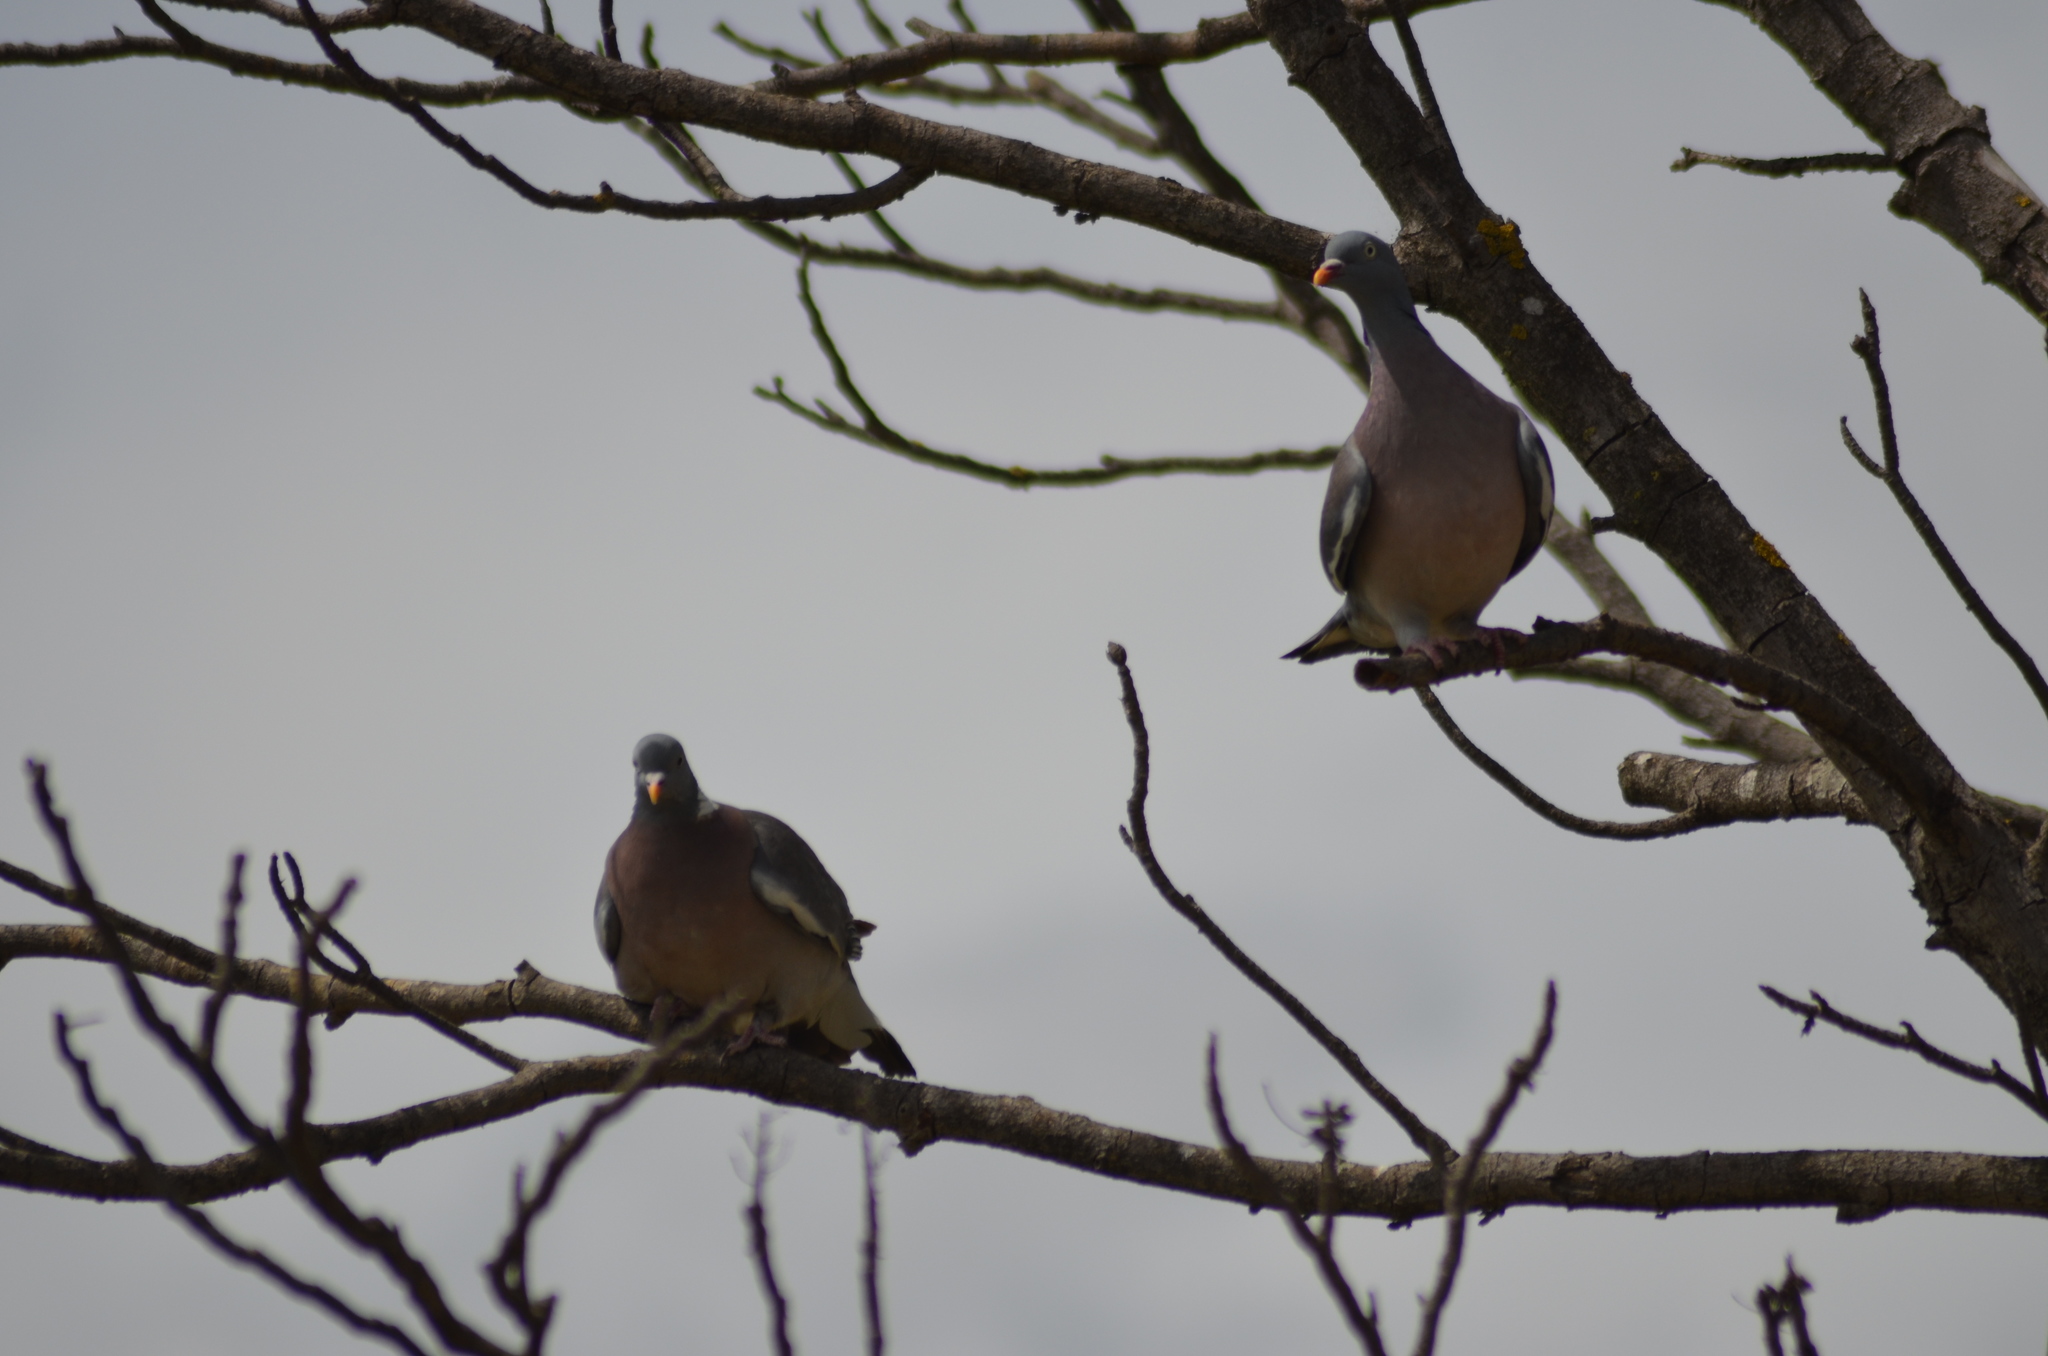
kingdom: Animalia
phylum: Chordata
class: Aves
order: Columbiformes
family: Columbidae
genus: Columba
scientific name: Columba palumbus
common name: Common wood pigeon
